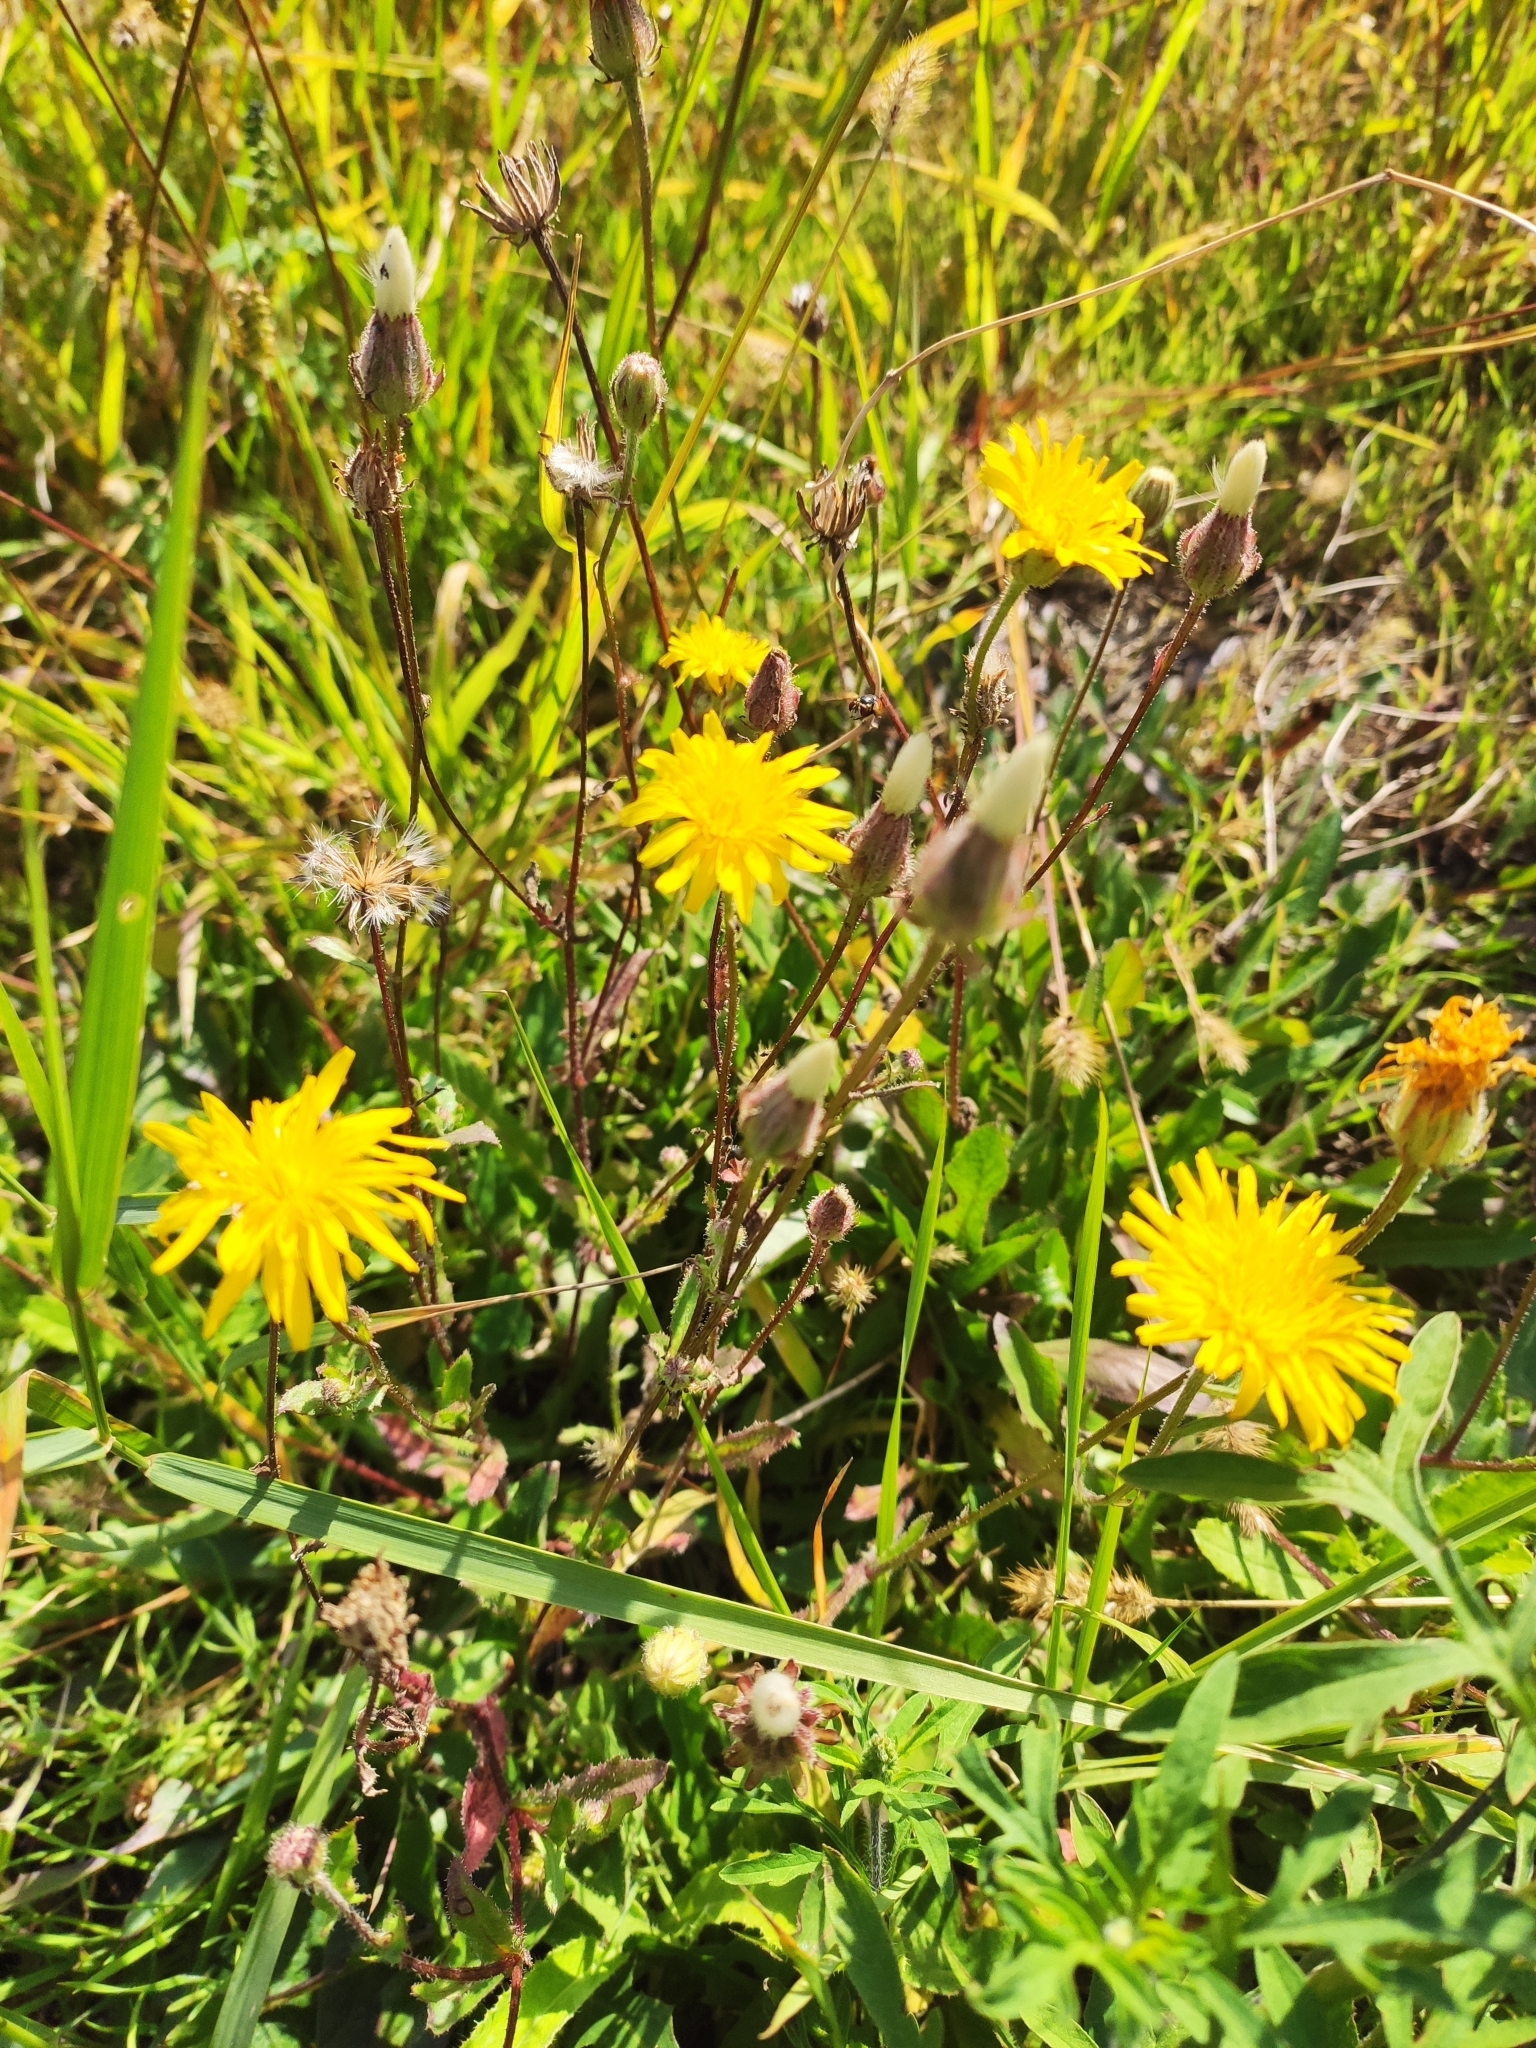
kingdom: Plantae
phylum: Tracheophyta
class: Magnoliopsida
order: Asterales
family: Asteraceae
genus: Crepis
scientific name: Crepis foetida
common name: Stinking hawk's-beard
